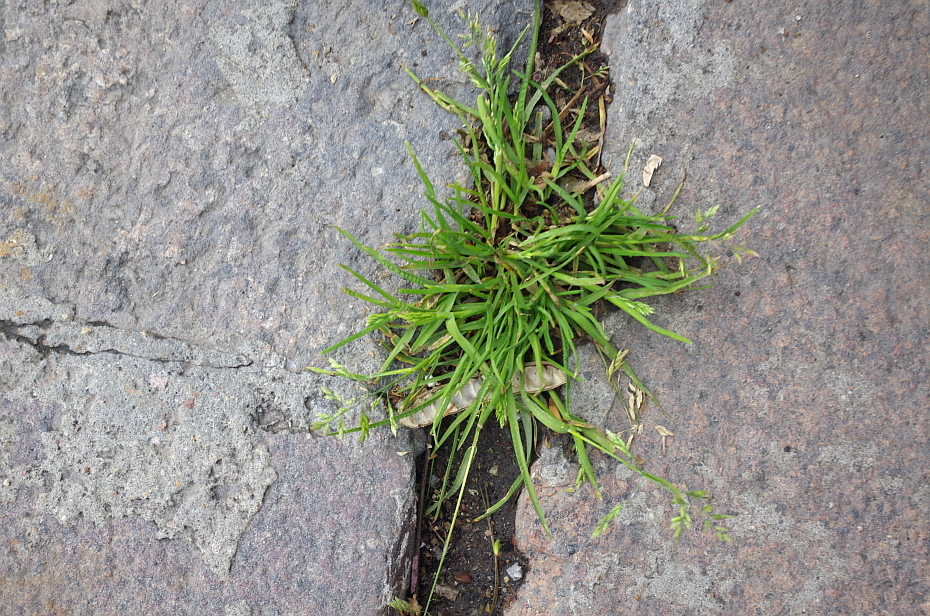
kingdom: Plantae
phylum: Tracheophyta
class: Liliopsida
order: Poales
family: Poaceae
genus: Poa
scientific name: Poa annua
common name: Annual bluegrass
